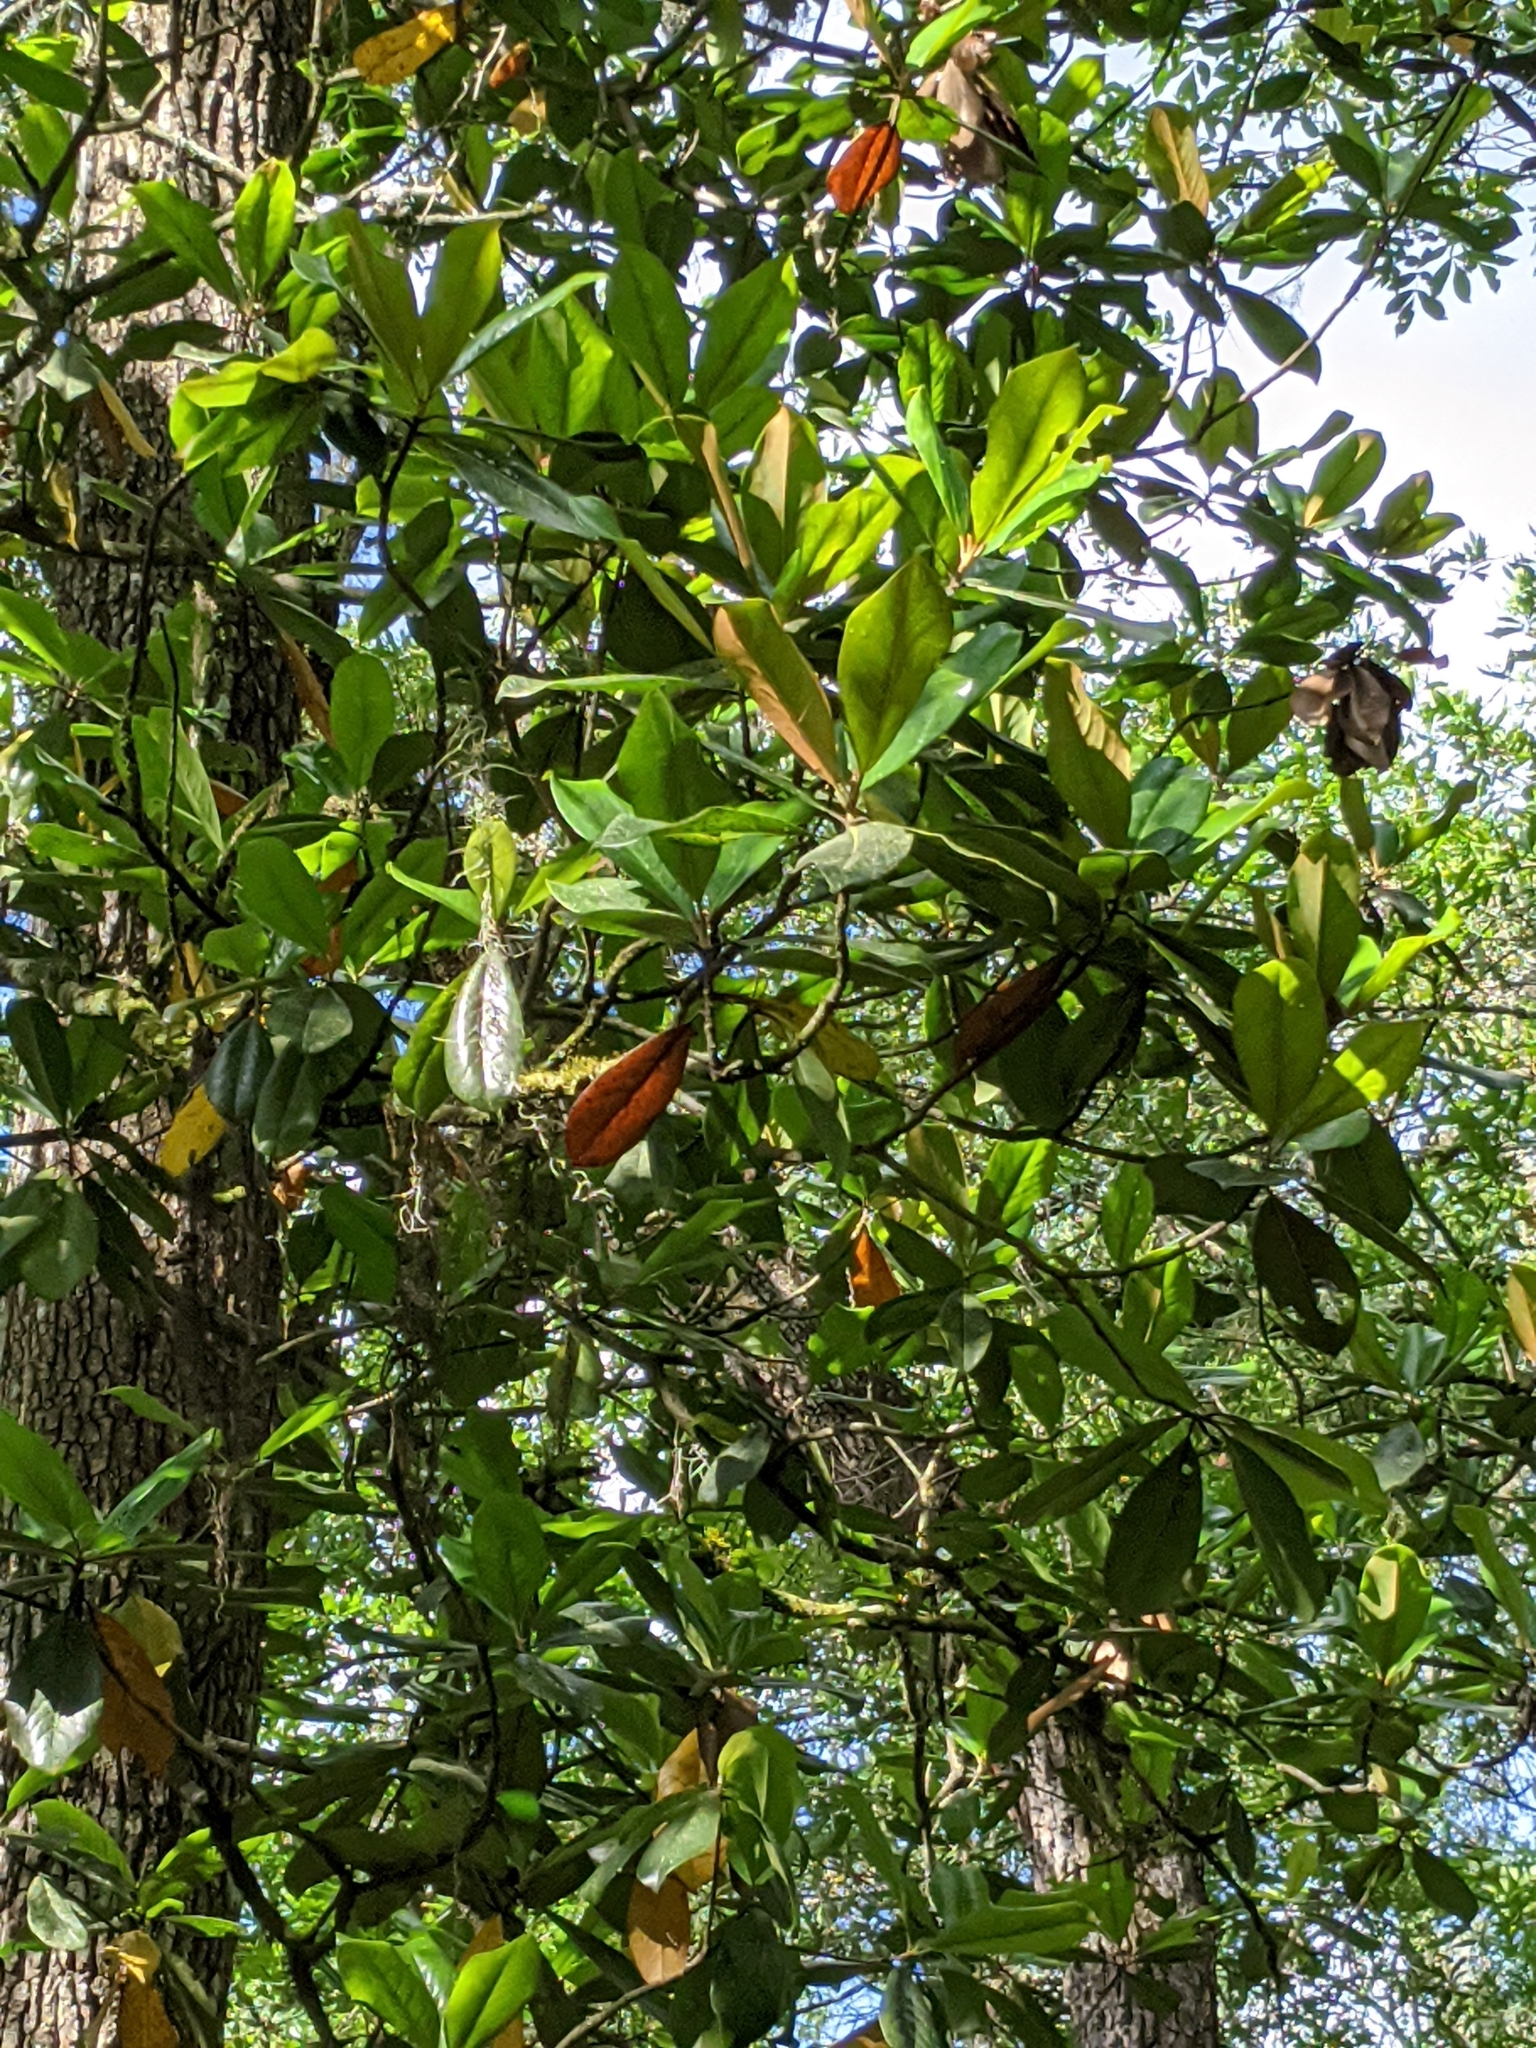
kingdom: Plantae
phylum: Tracheophyta
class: Magnoliopsida
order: Magnoliales
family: Magnoliaceae
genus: Magnolia
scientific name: Magnolia grandiflora
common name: Southern magnolia
